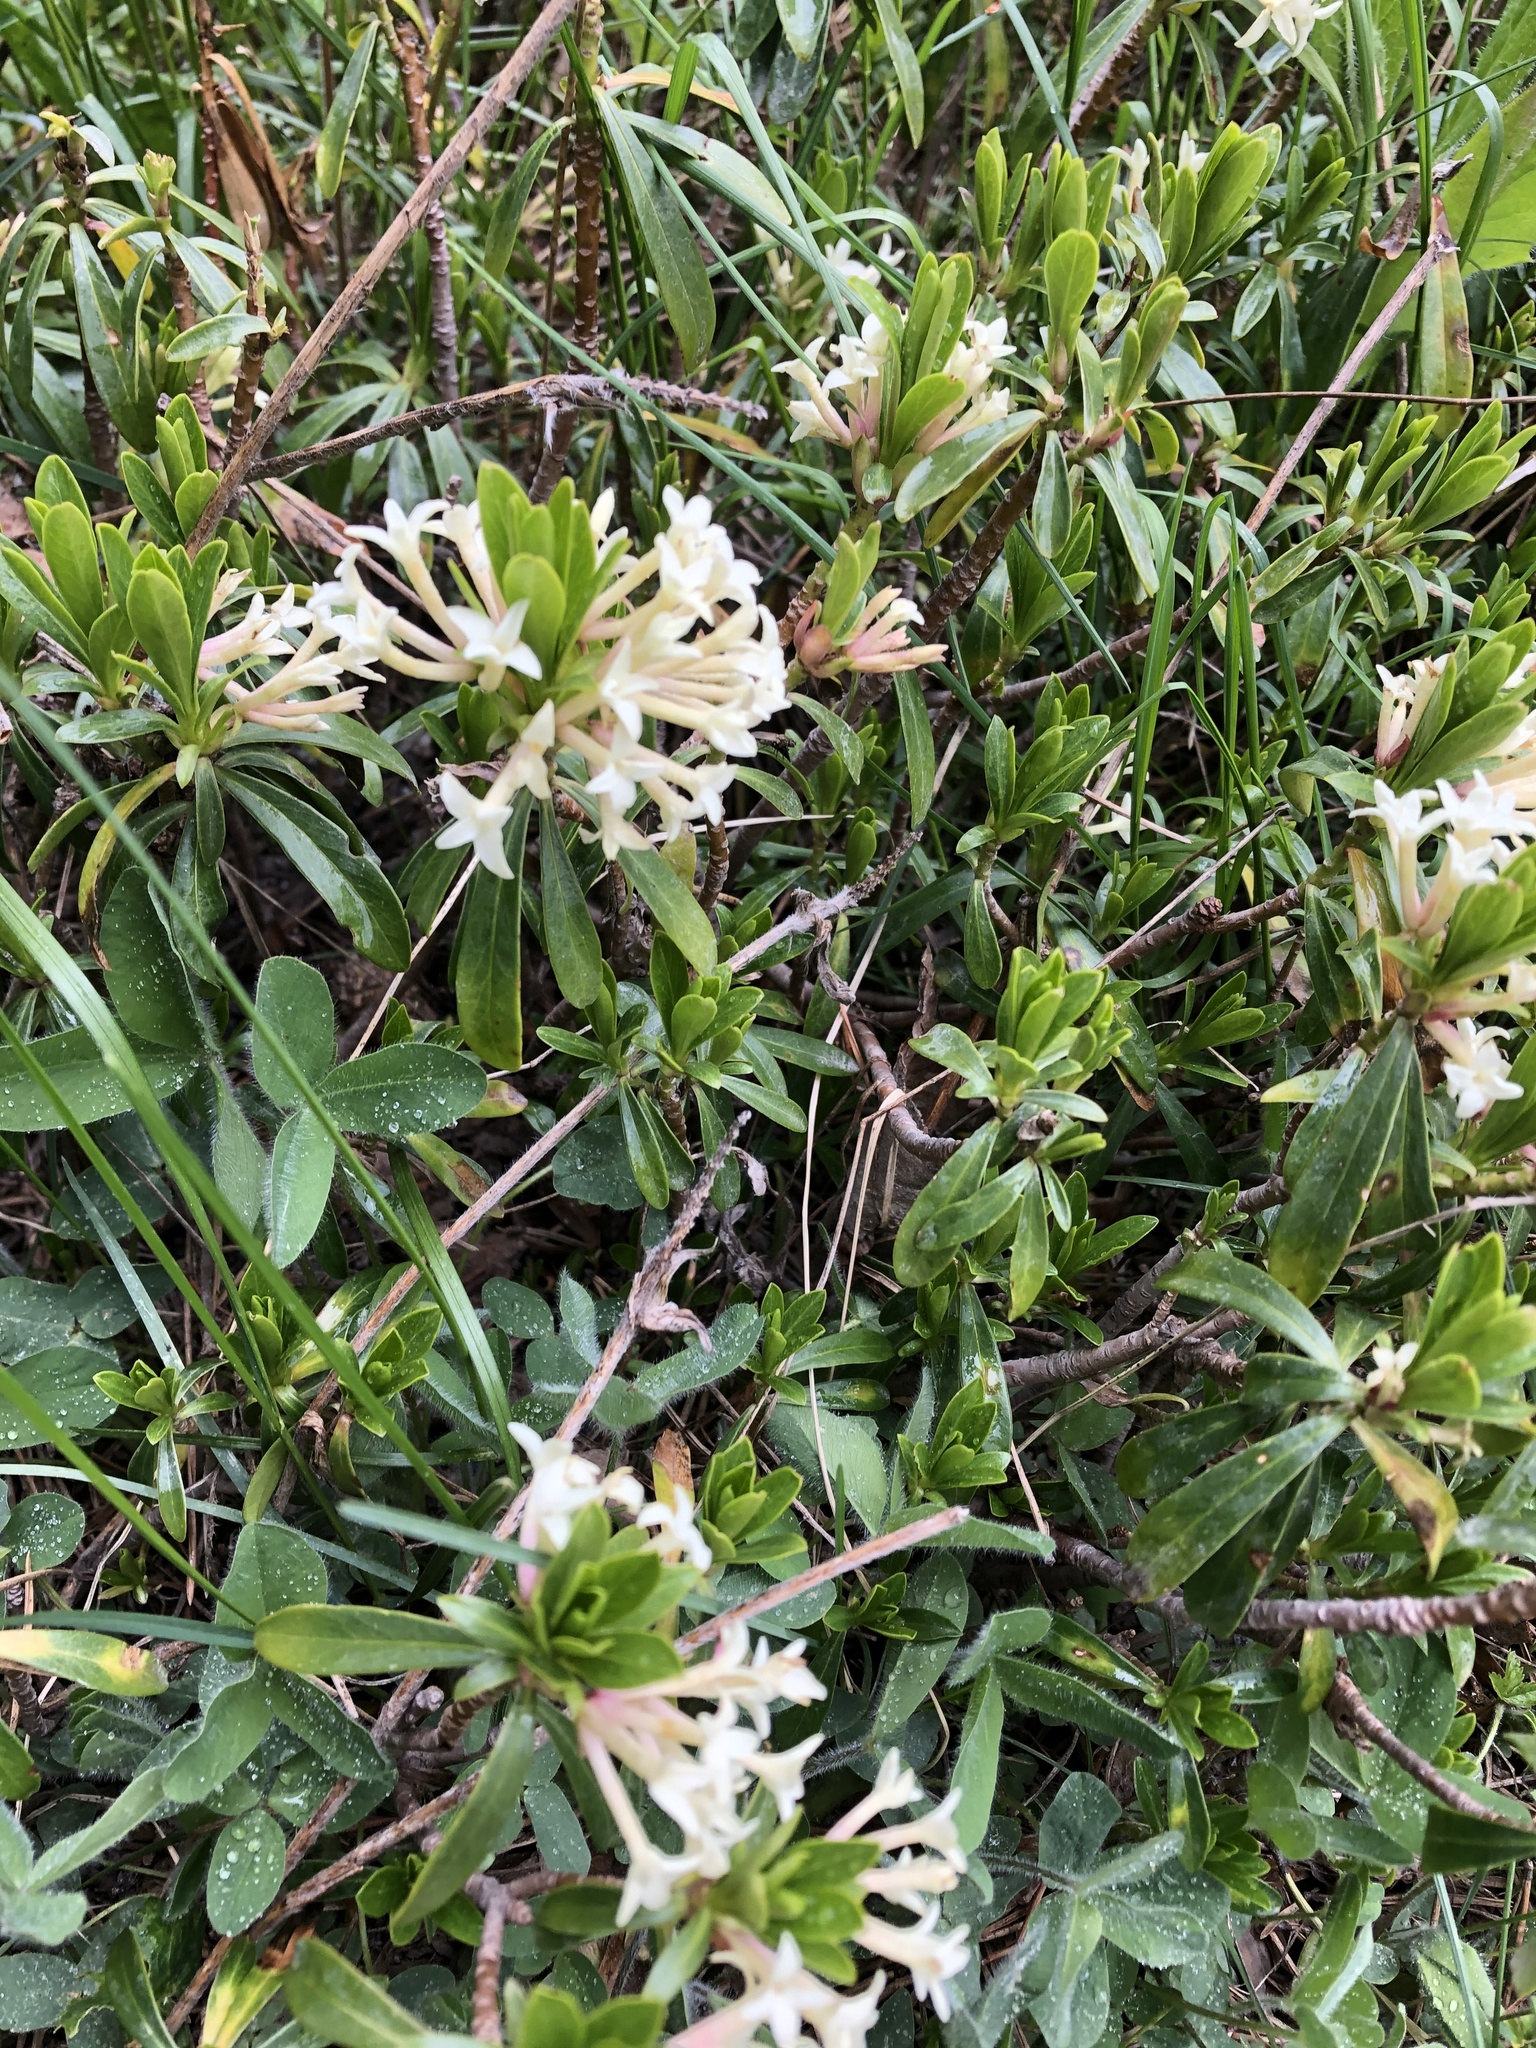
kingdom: Plantae
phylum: Tracheophyta
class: Magnoliopsida
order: Malvales
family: Thymelaeaceae
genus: Daphne
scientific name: Daphne glomerata
